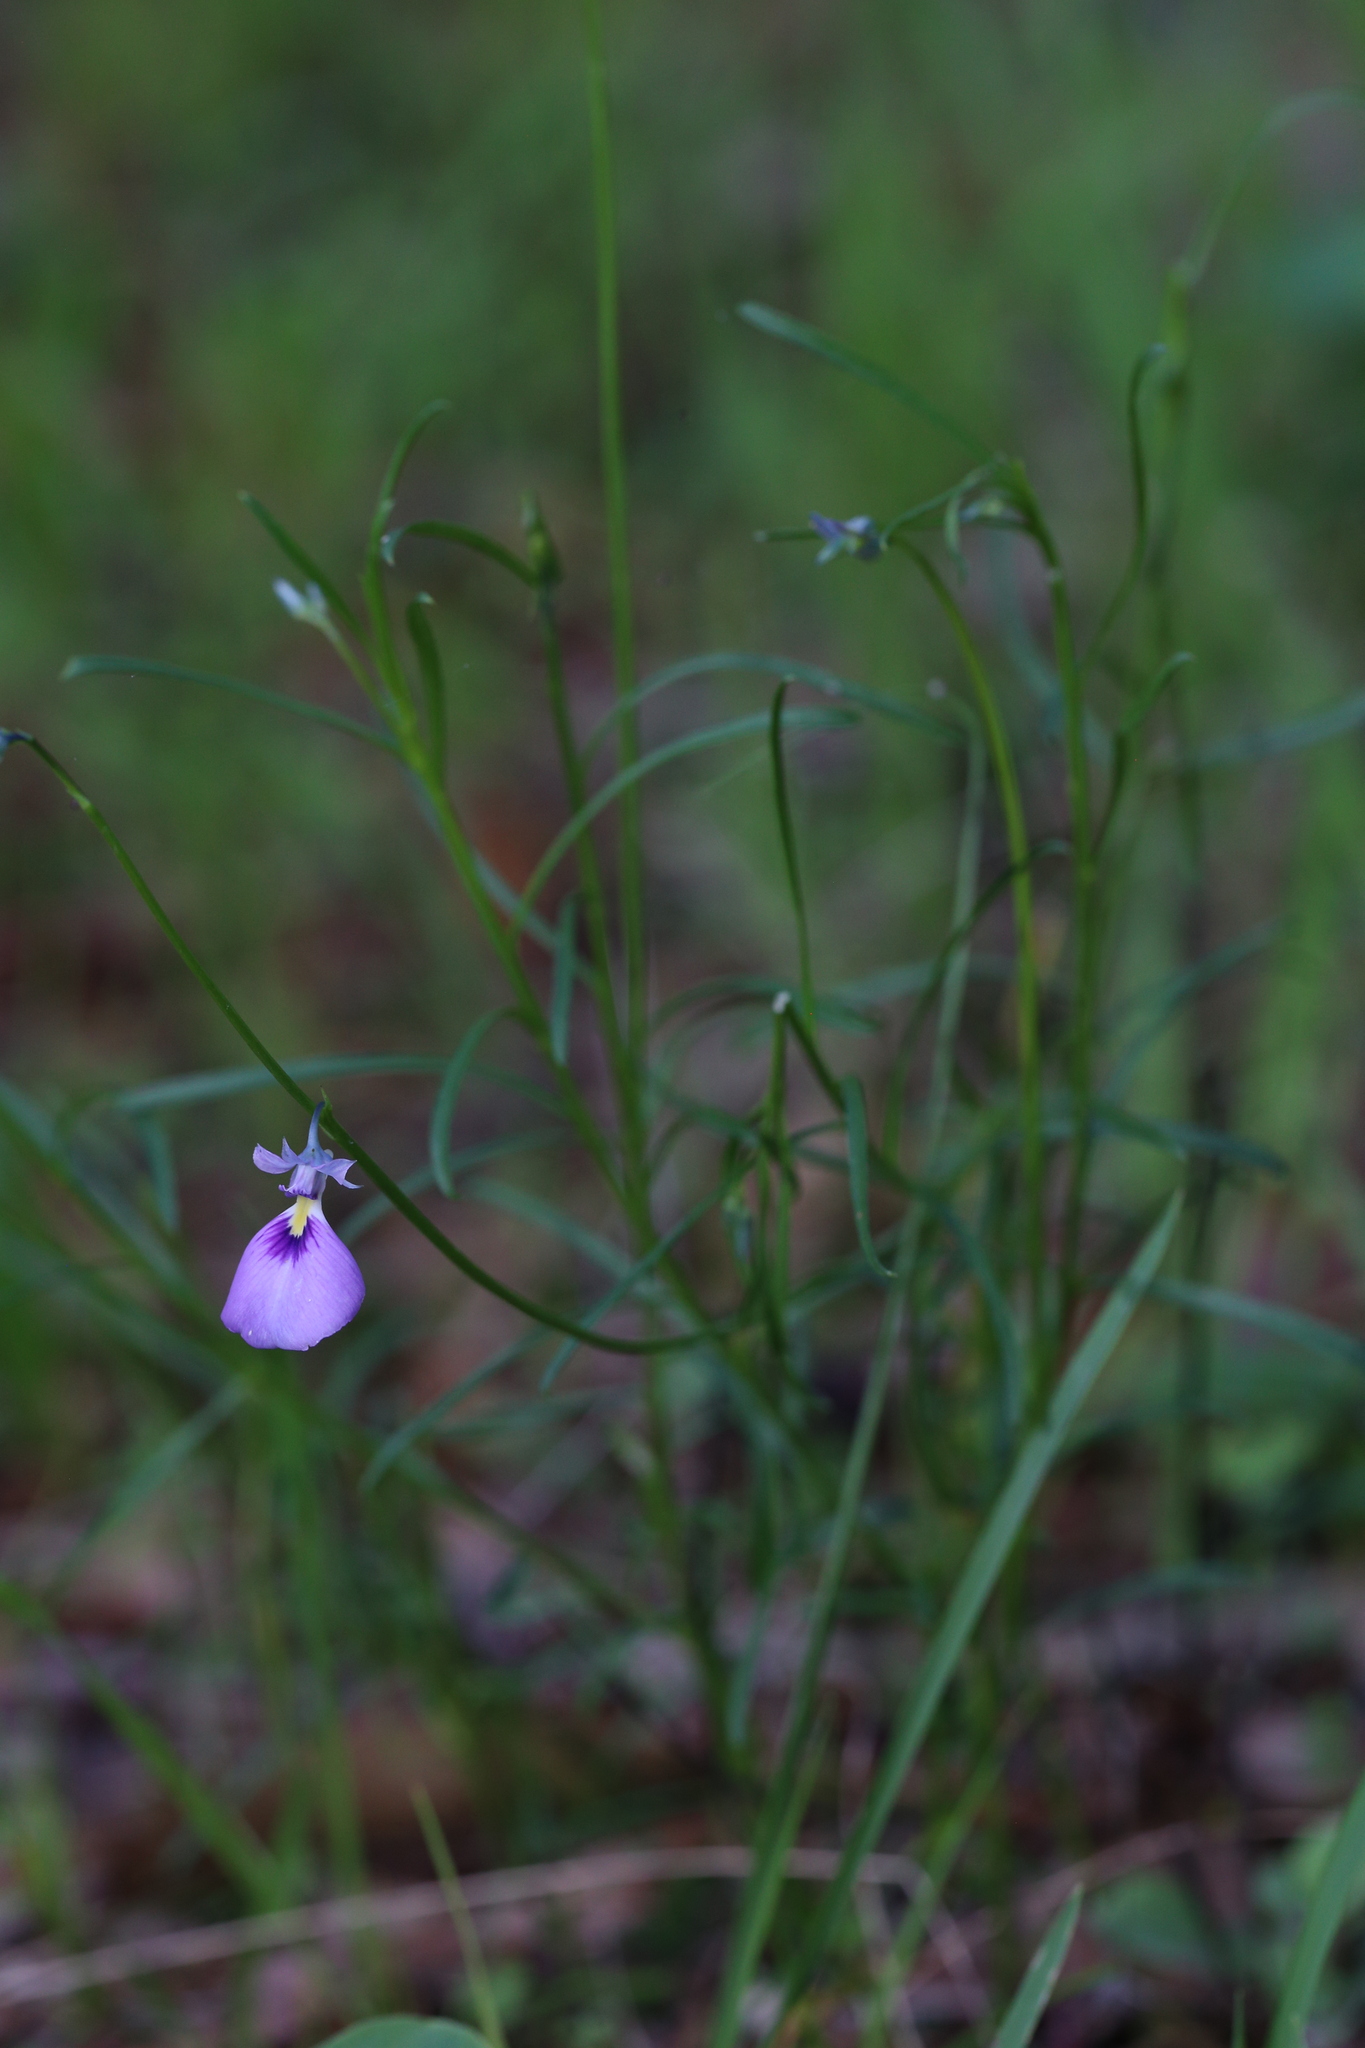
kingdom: Plantae
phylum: Tracheophyta
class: Magnoliopsida
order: Malpighiales
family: Violaceae
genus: Pigea
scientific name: Pigea calycina
